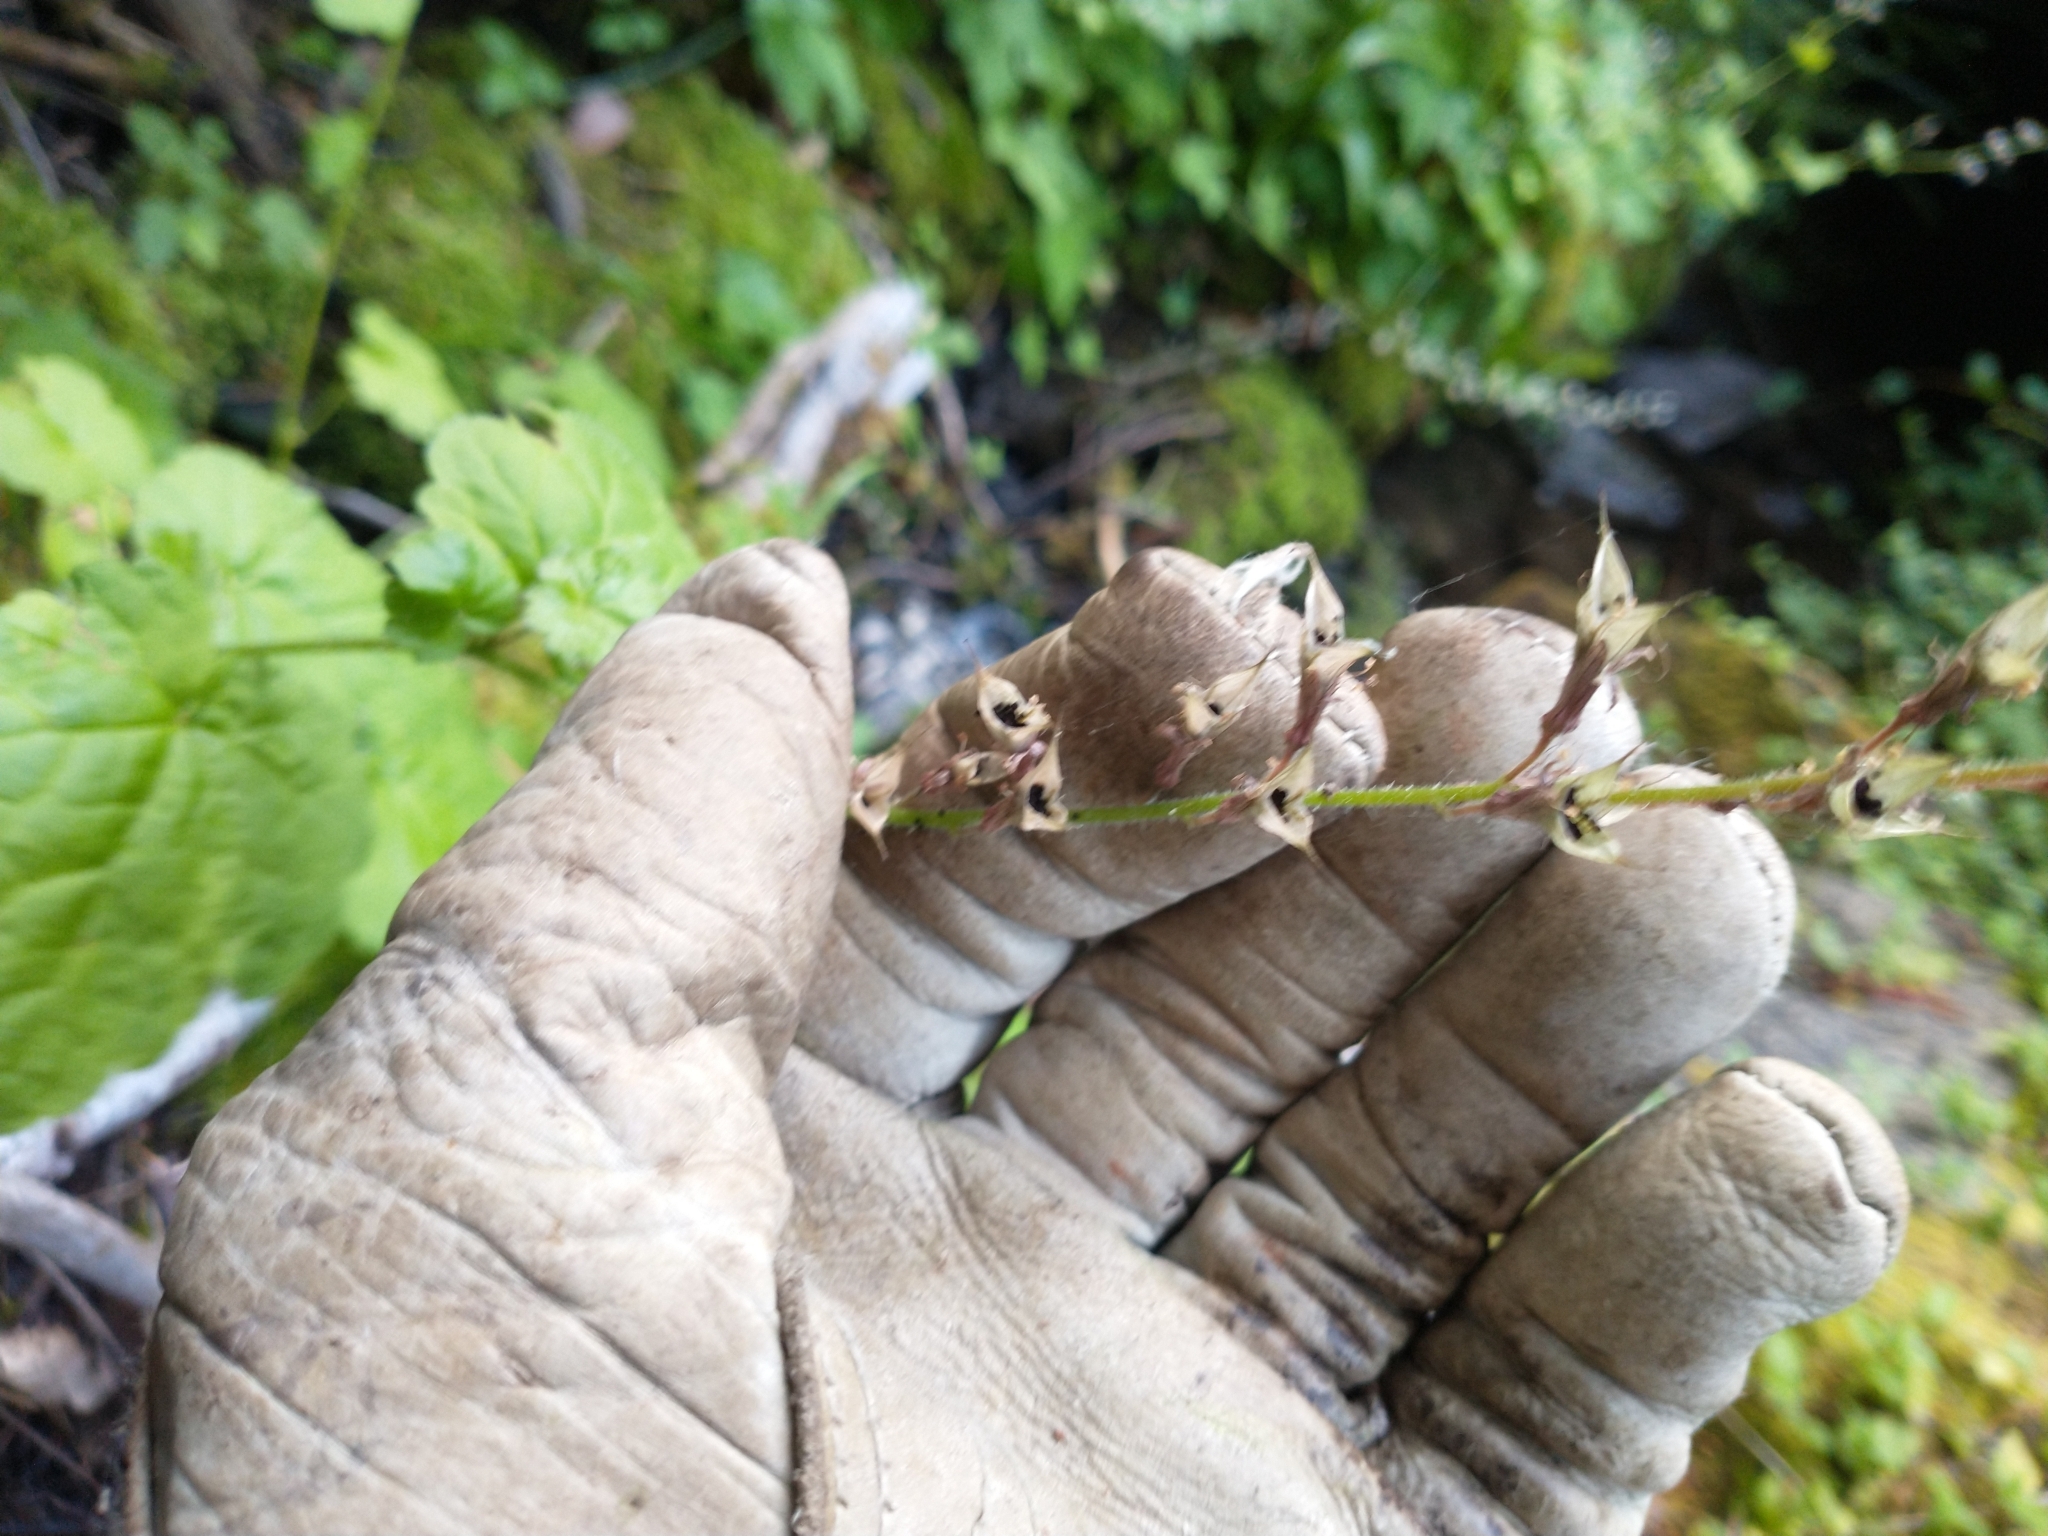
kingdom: Plantae
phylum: Tracheophyta
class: Magnoliopsida
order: Saxifragales
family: Saxifragaceae
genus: Tolmiea
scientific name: Tolmiea diplomenziesii
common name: Youth on age
